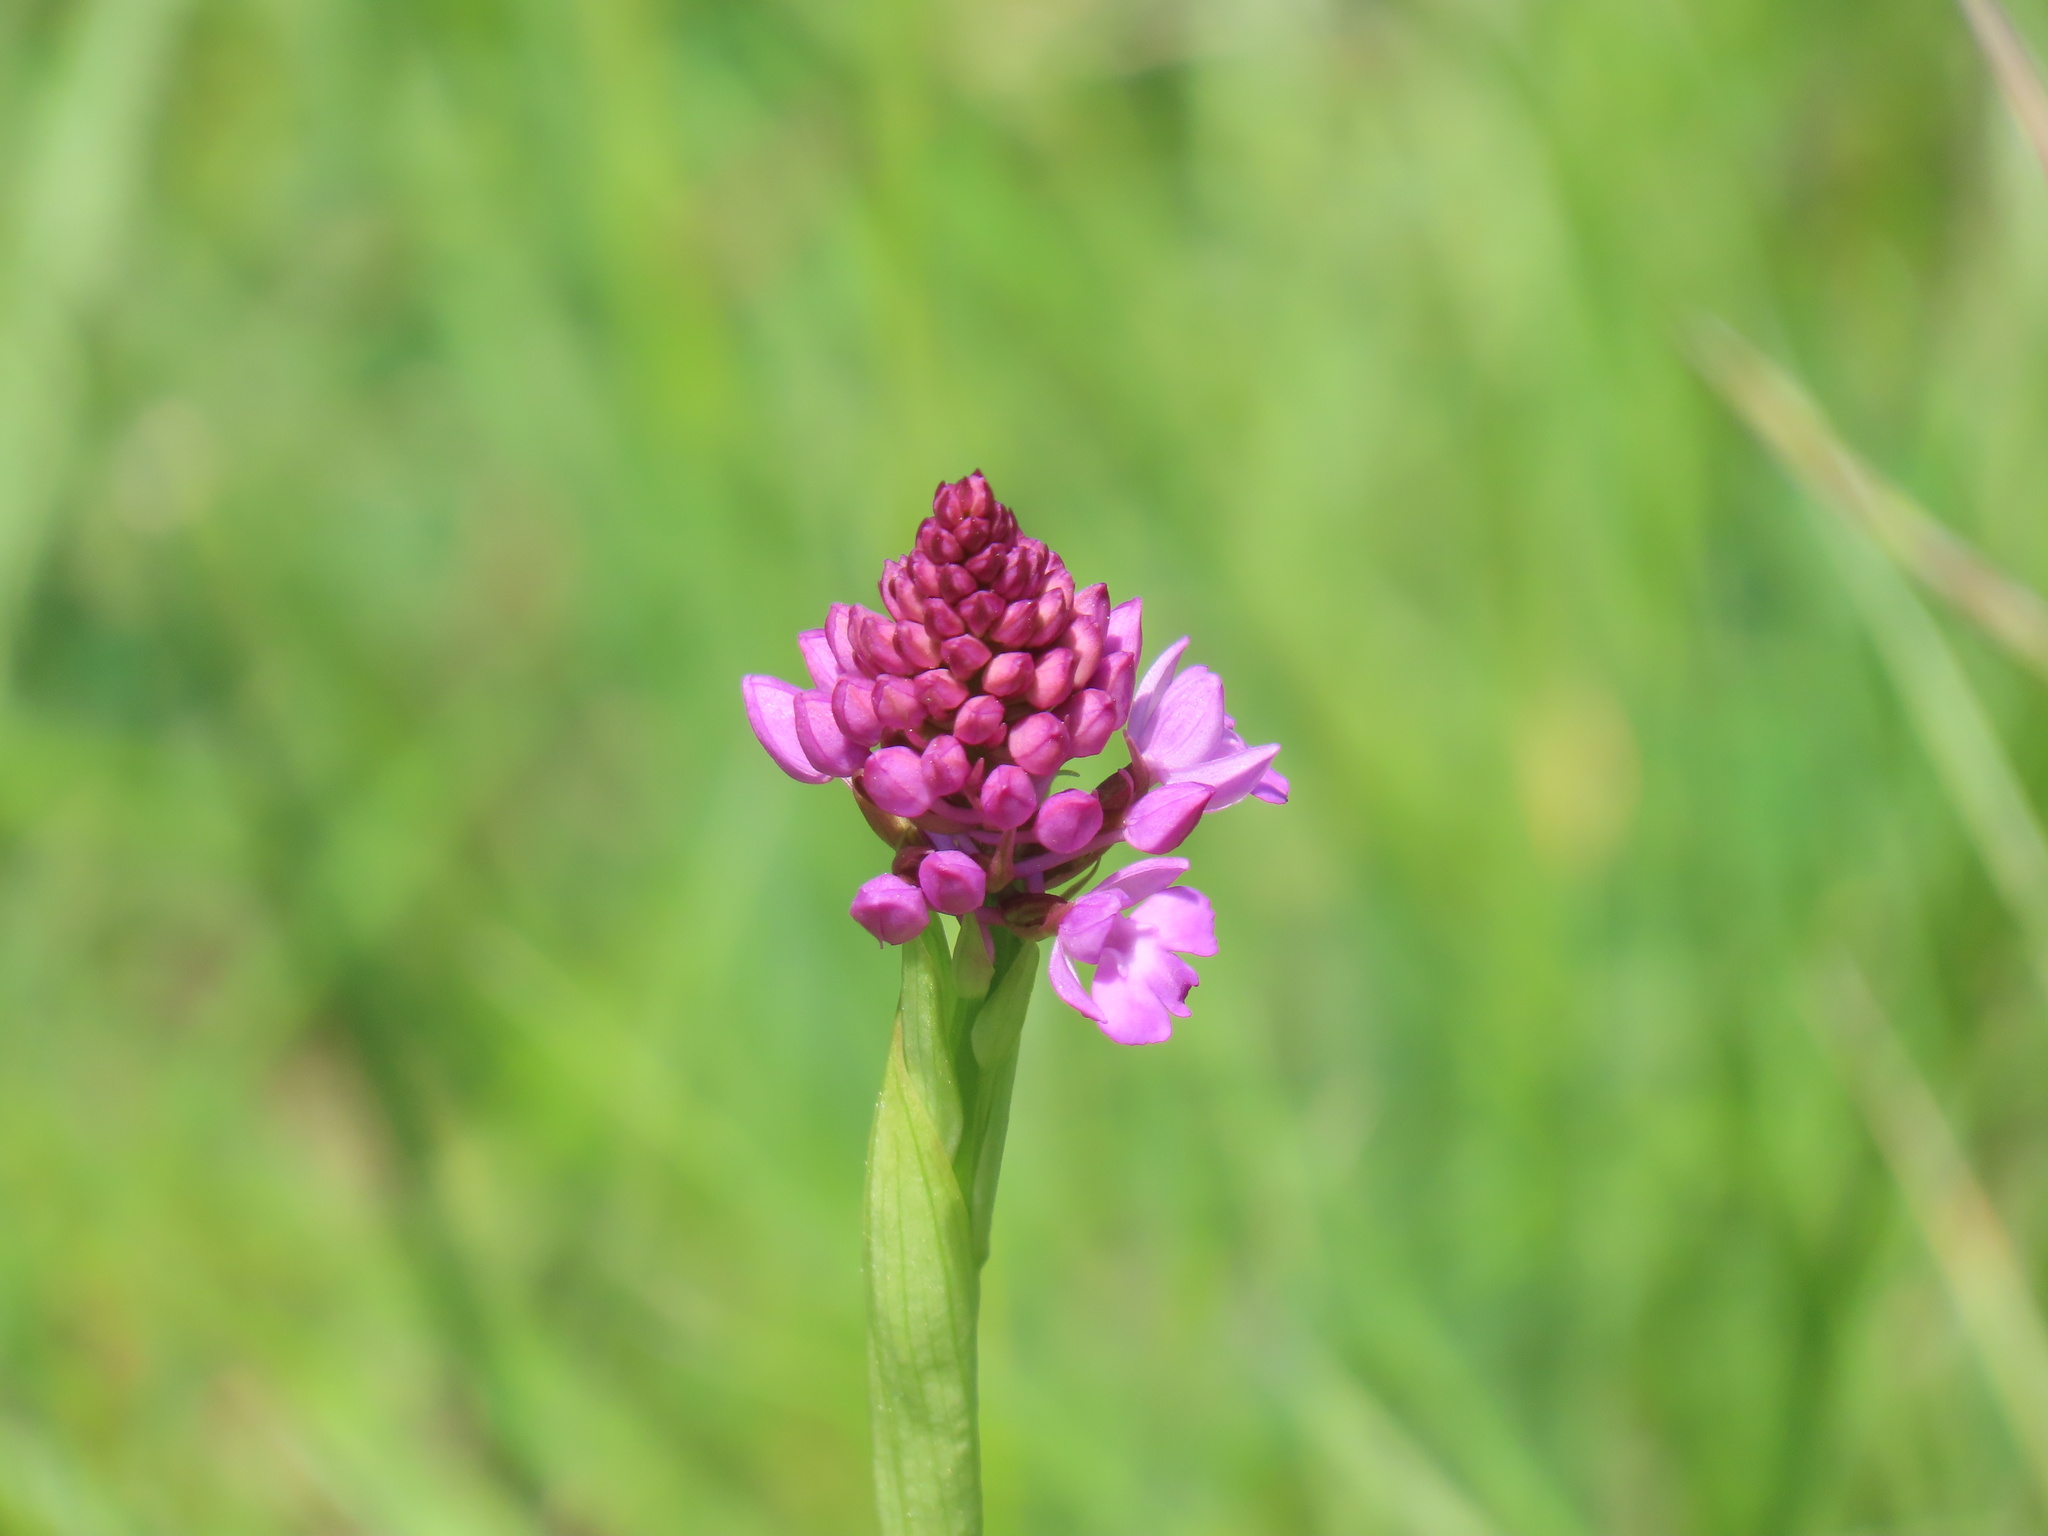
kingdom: Plantae
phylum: Tracheophyta
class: Liliopsida
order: Asparagales
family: Orchidaceae
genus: Anacamptis
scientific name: Anacamptis pyramidalis
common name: Pyramidal orchid
